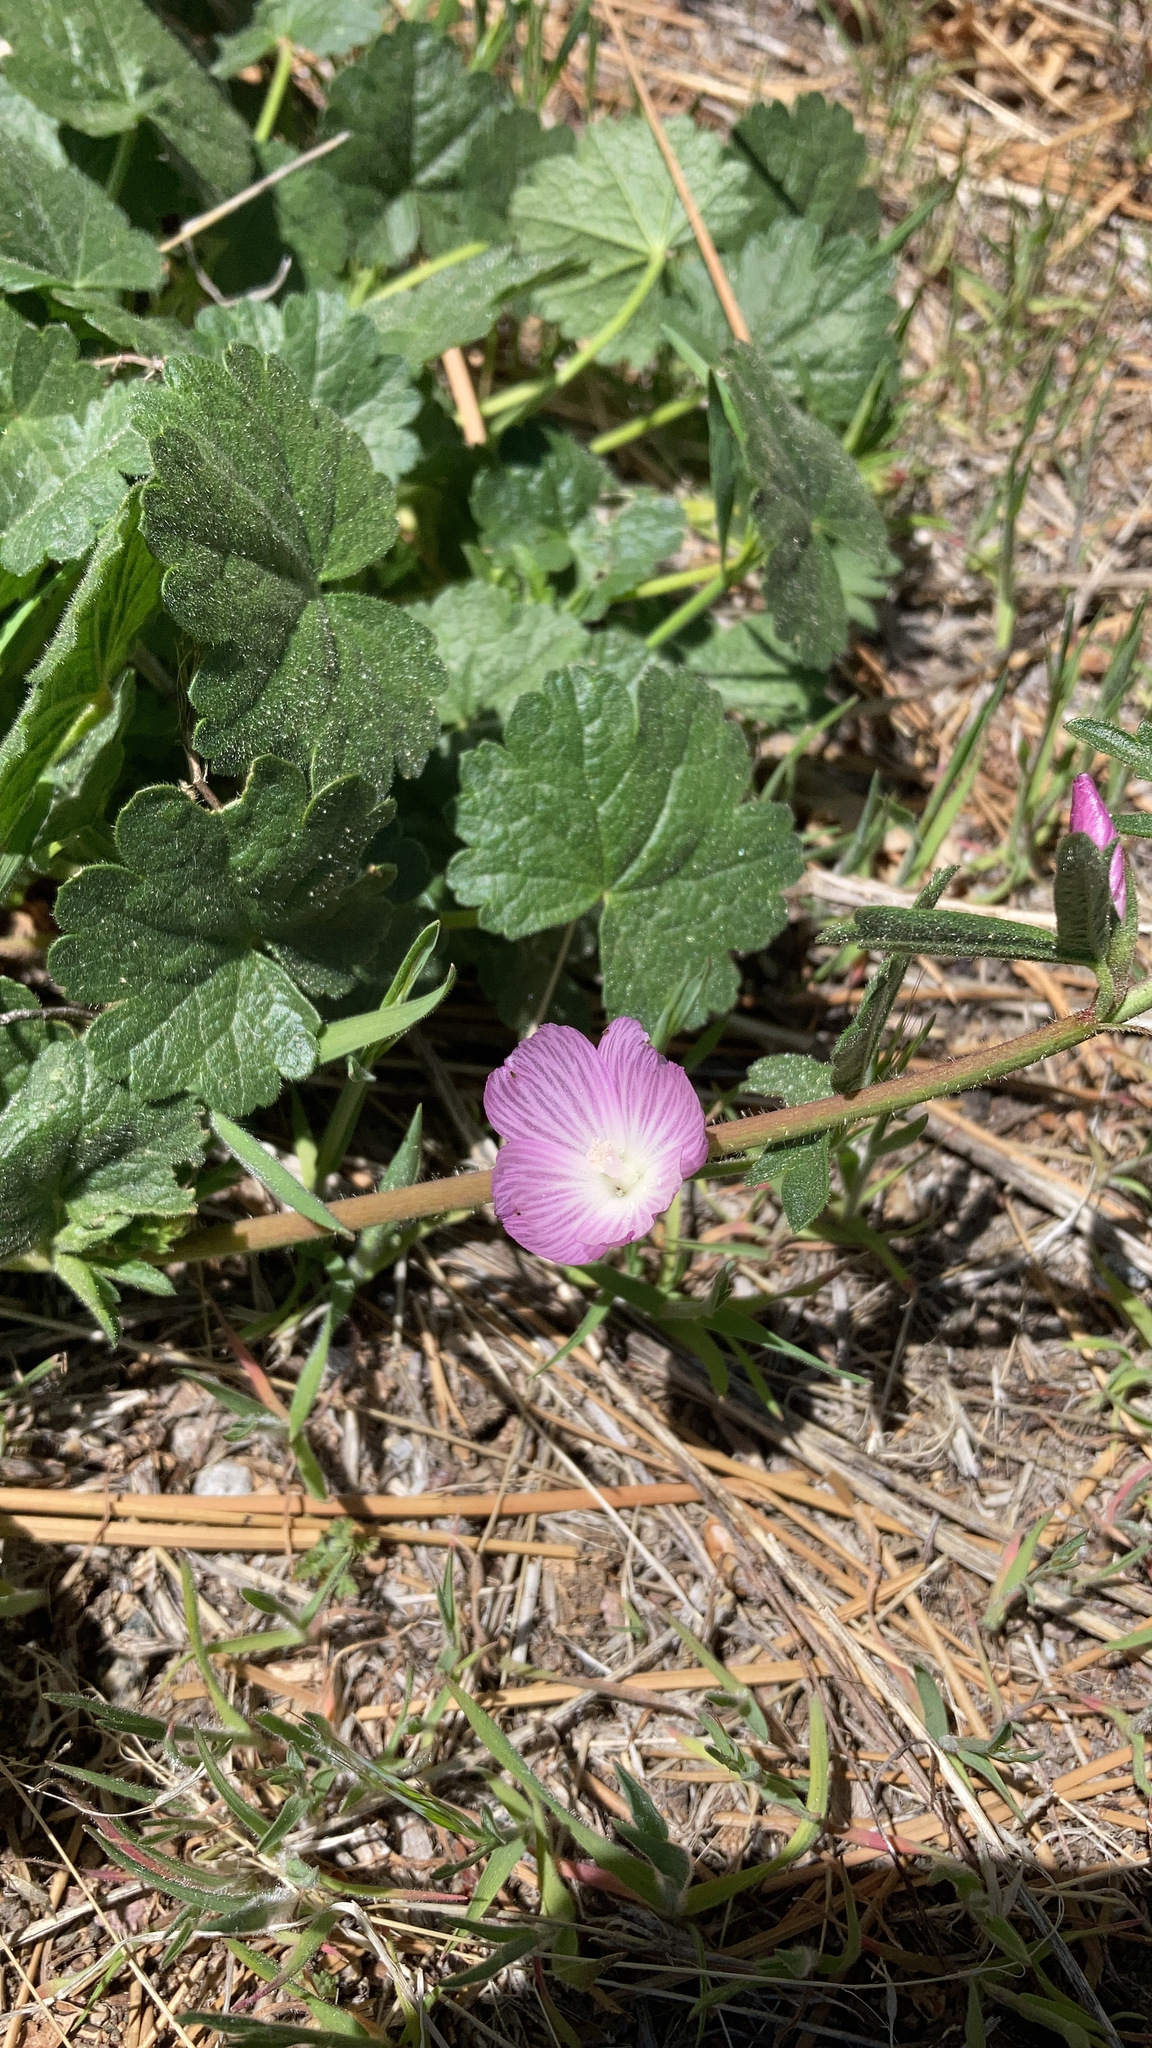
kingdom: Plantae
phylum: Tracheophyta
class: Magnoliopsida
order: Malvales
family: Malvaceae
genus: Sidalcea
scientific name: Sidalcea sparsifolia
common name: Southern checkerbloom
